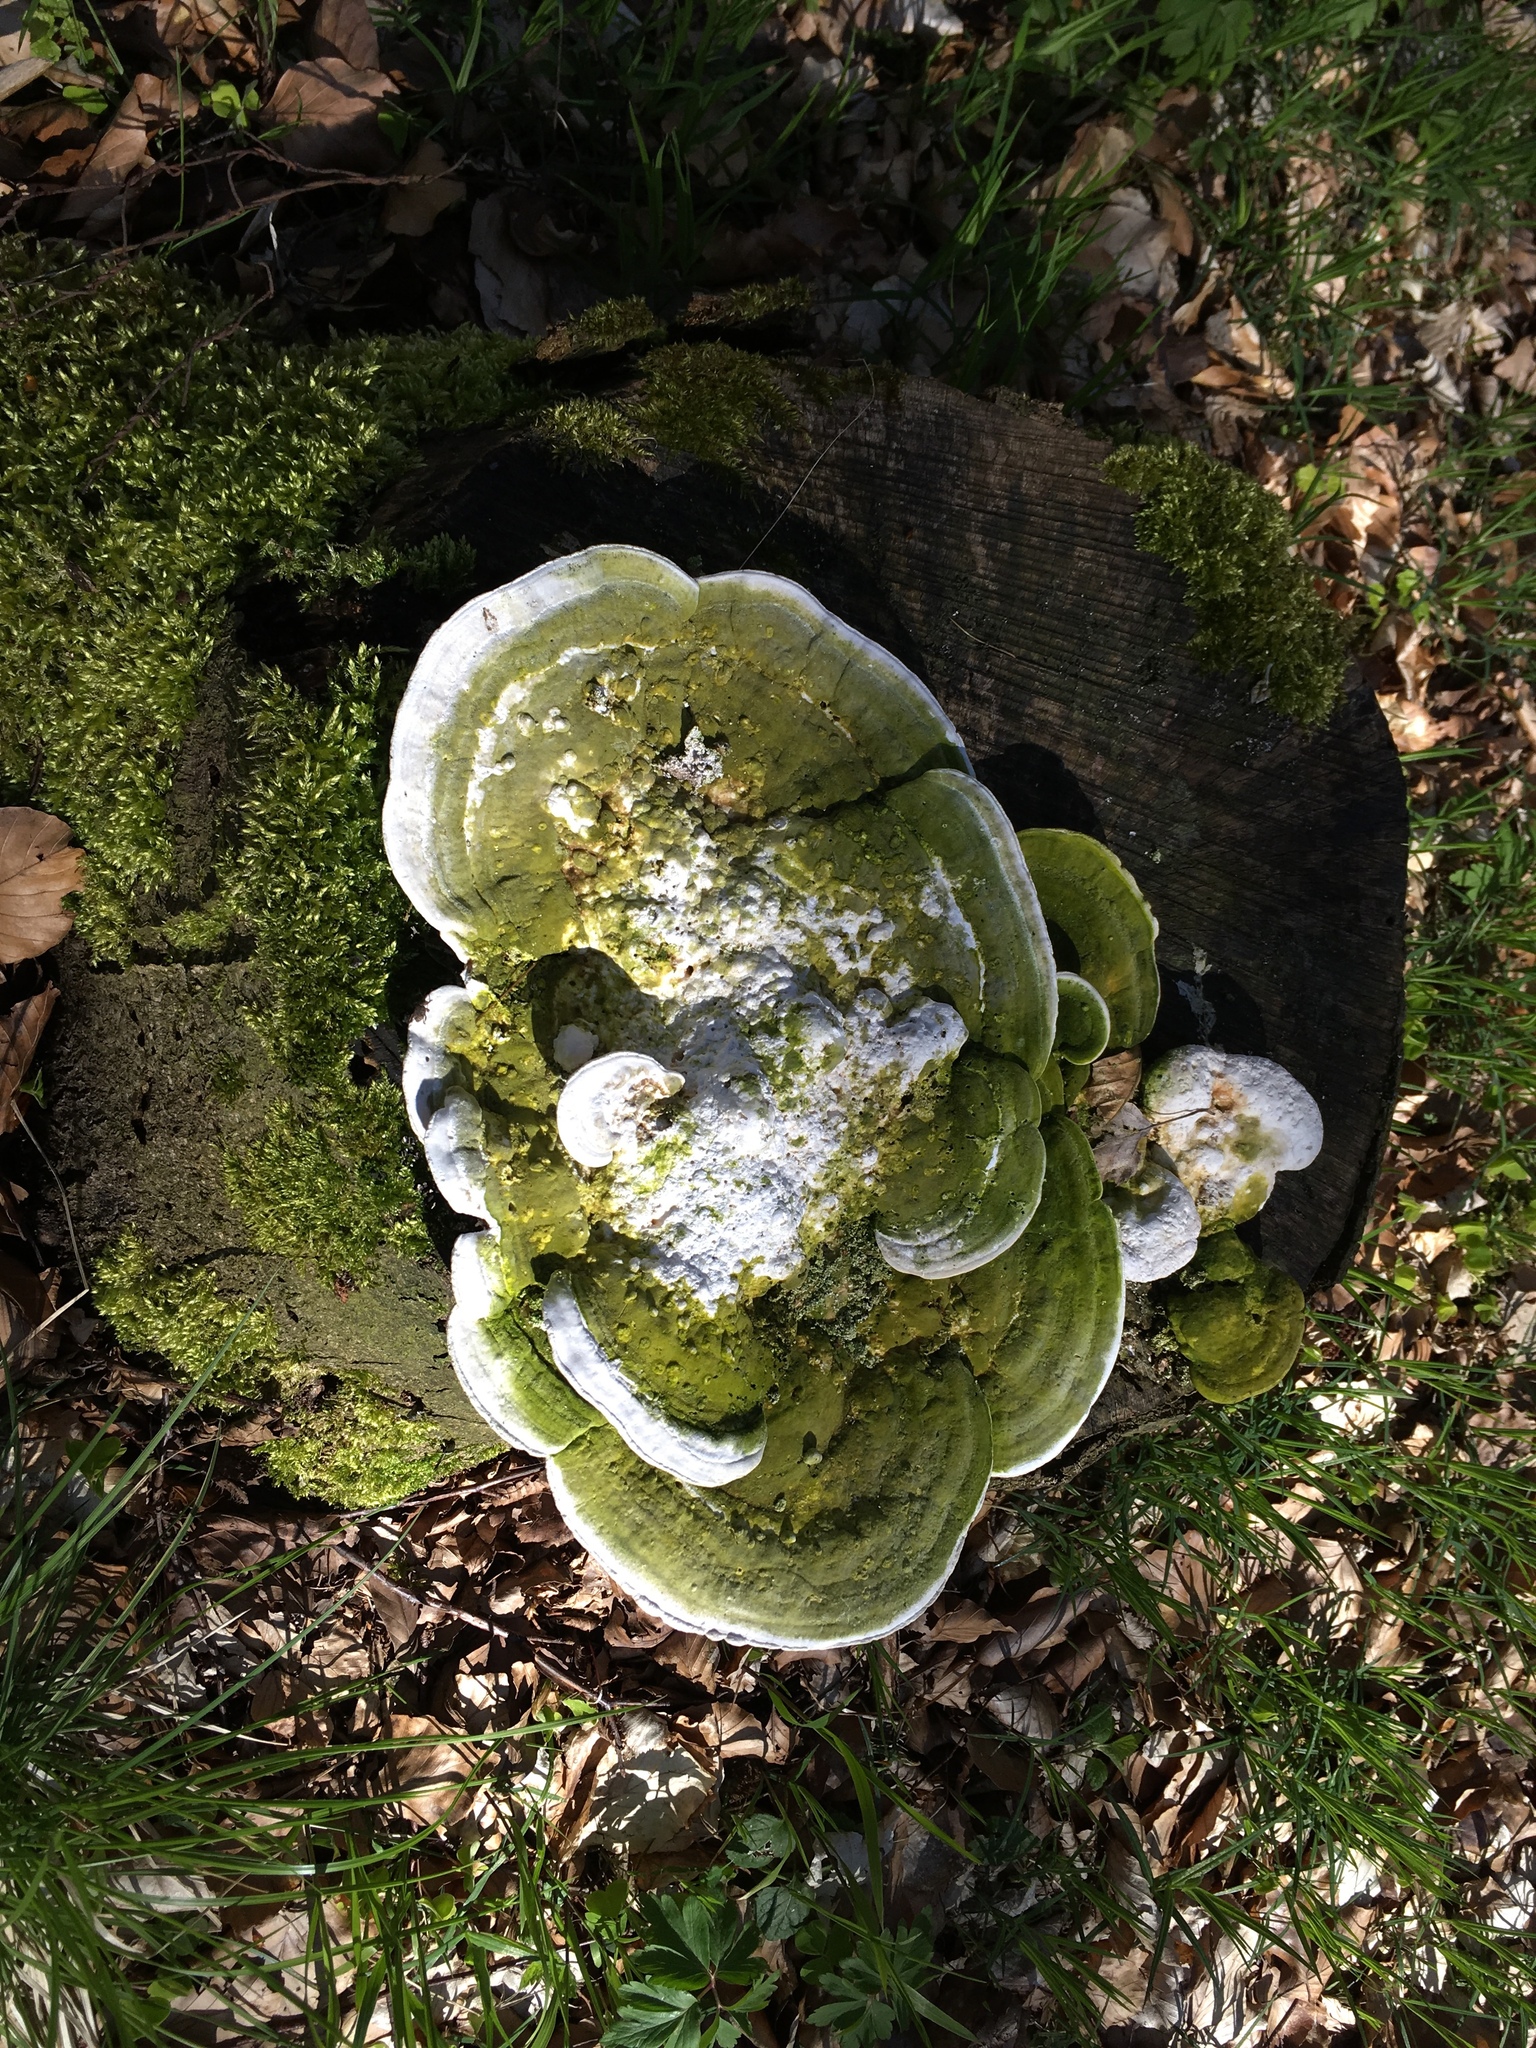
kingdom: Fungi
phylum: Basidiomycota
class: Agaricomycetes
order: Polyporales
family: Polyporaceae
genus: Trametes
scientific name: Trametes gibbosa
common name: Lumpy bracket
